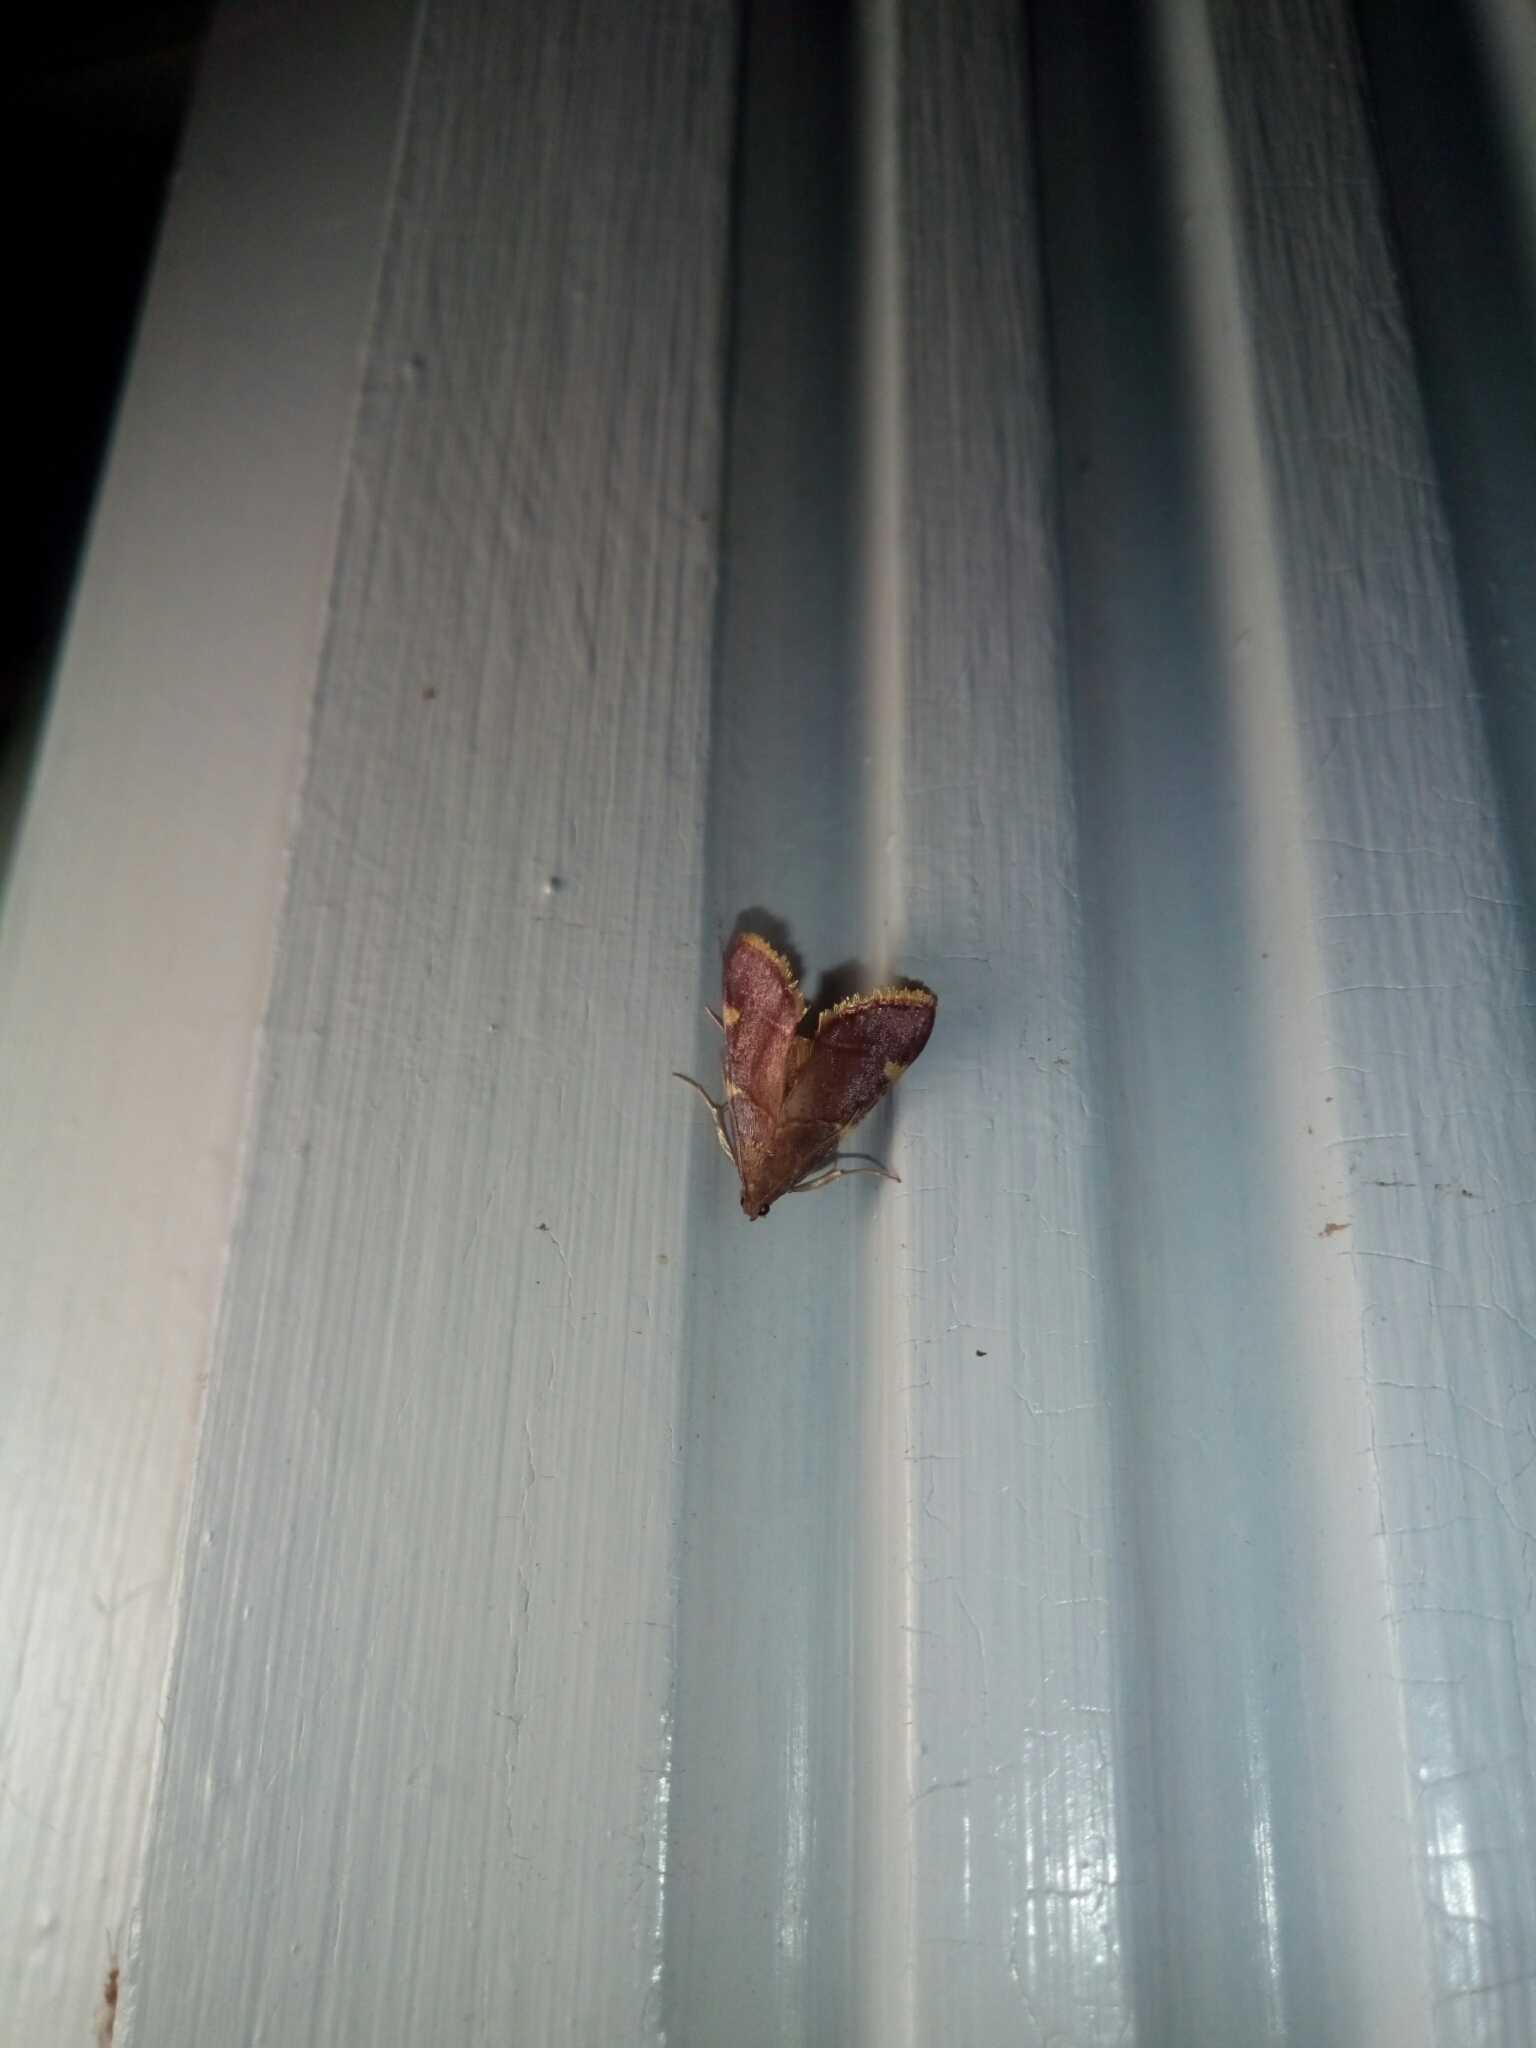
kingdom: Animalia
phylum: Arthropoda
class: Insecta
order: Lepidoptera
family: Pyralidae
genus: Hypsopygia
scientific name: Hypsopygia olinalis
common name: Yellow-fringed dolichomia moth
